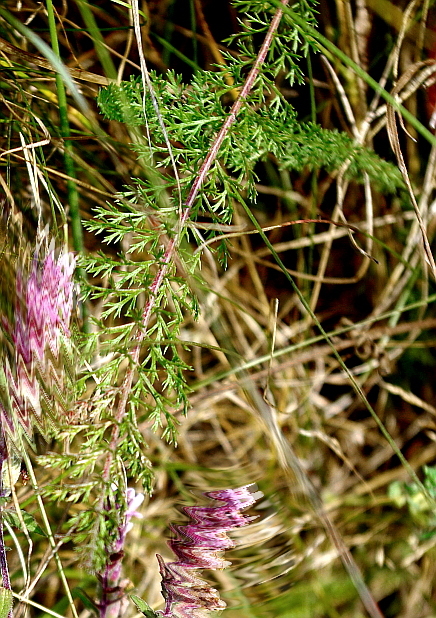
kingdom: Plantae
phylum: Tracheophyta
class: Magnoliopsida
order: Asterales
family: Asteraceae
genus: Achillea
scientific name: Achillea millefolium
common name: Yarrow
